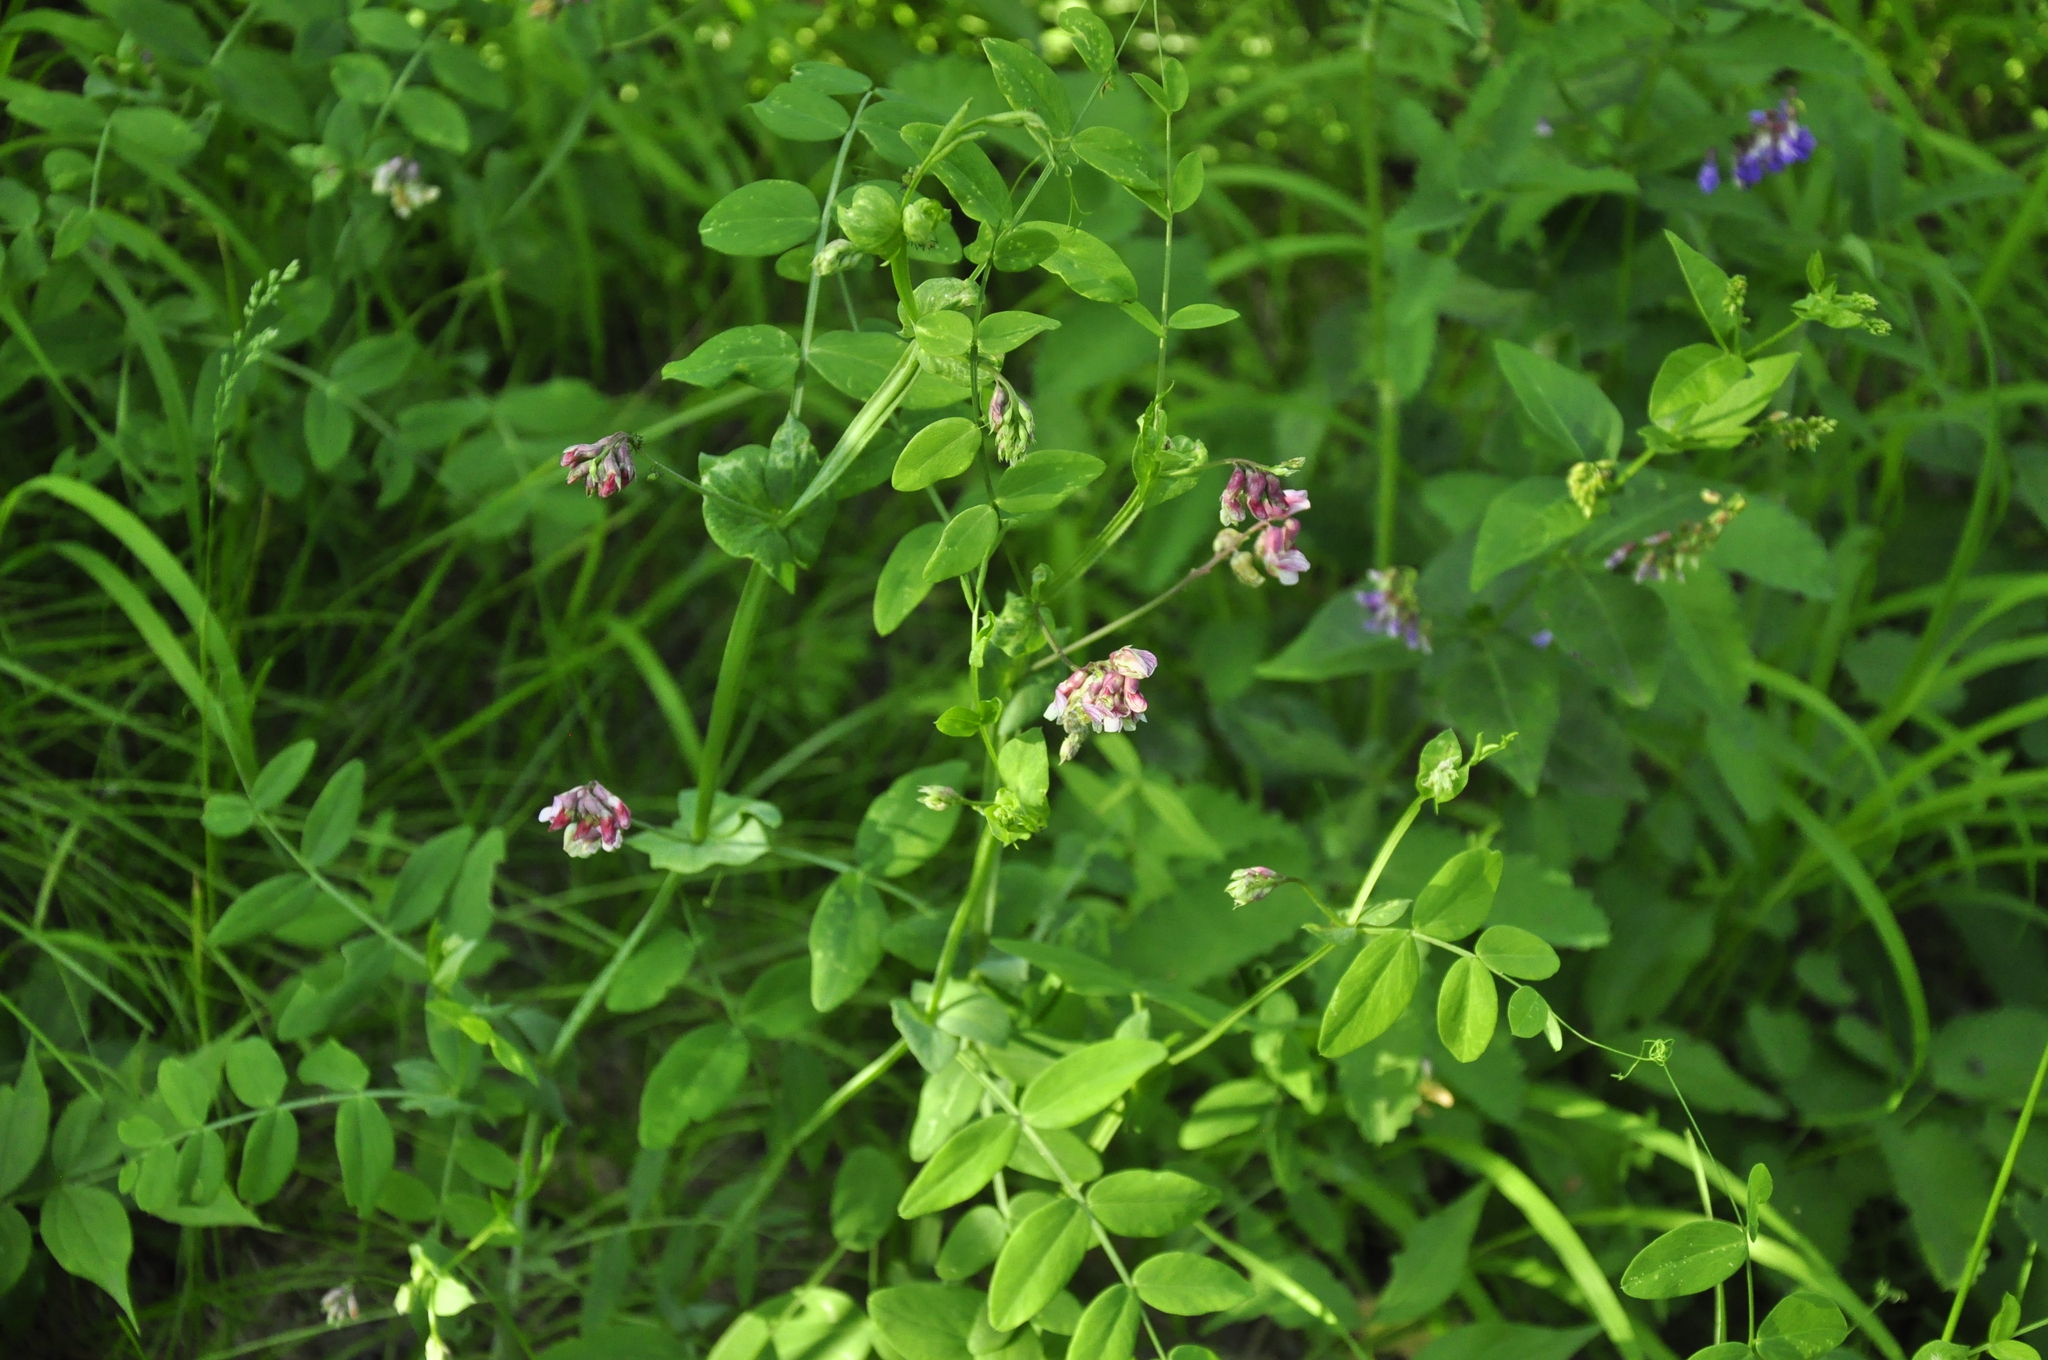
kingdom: Plantae
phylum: Tracheophyta
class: Magnoliopsida
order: Fabales
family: Fabaceae
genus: Lathyrus
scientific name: Lathyrus pisiformis
